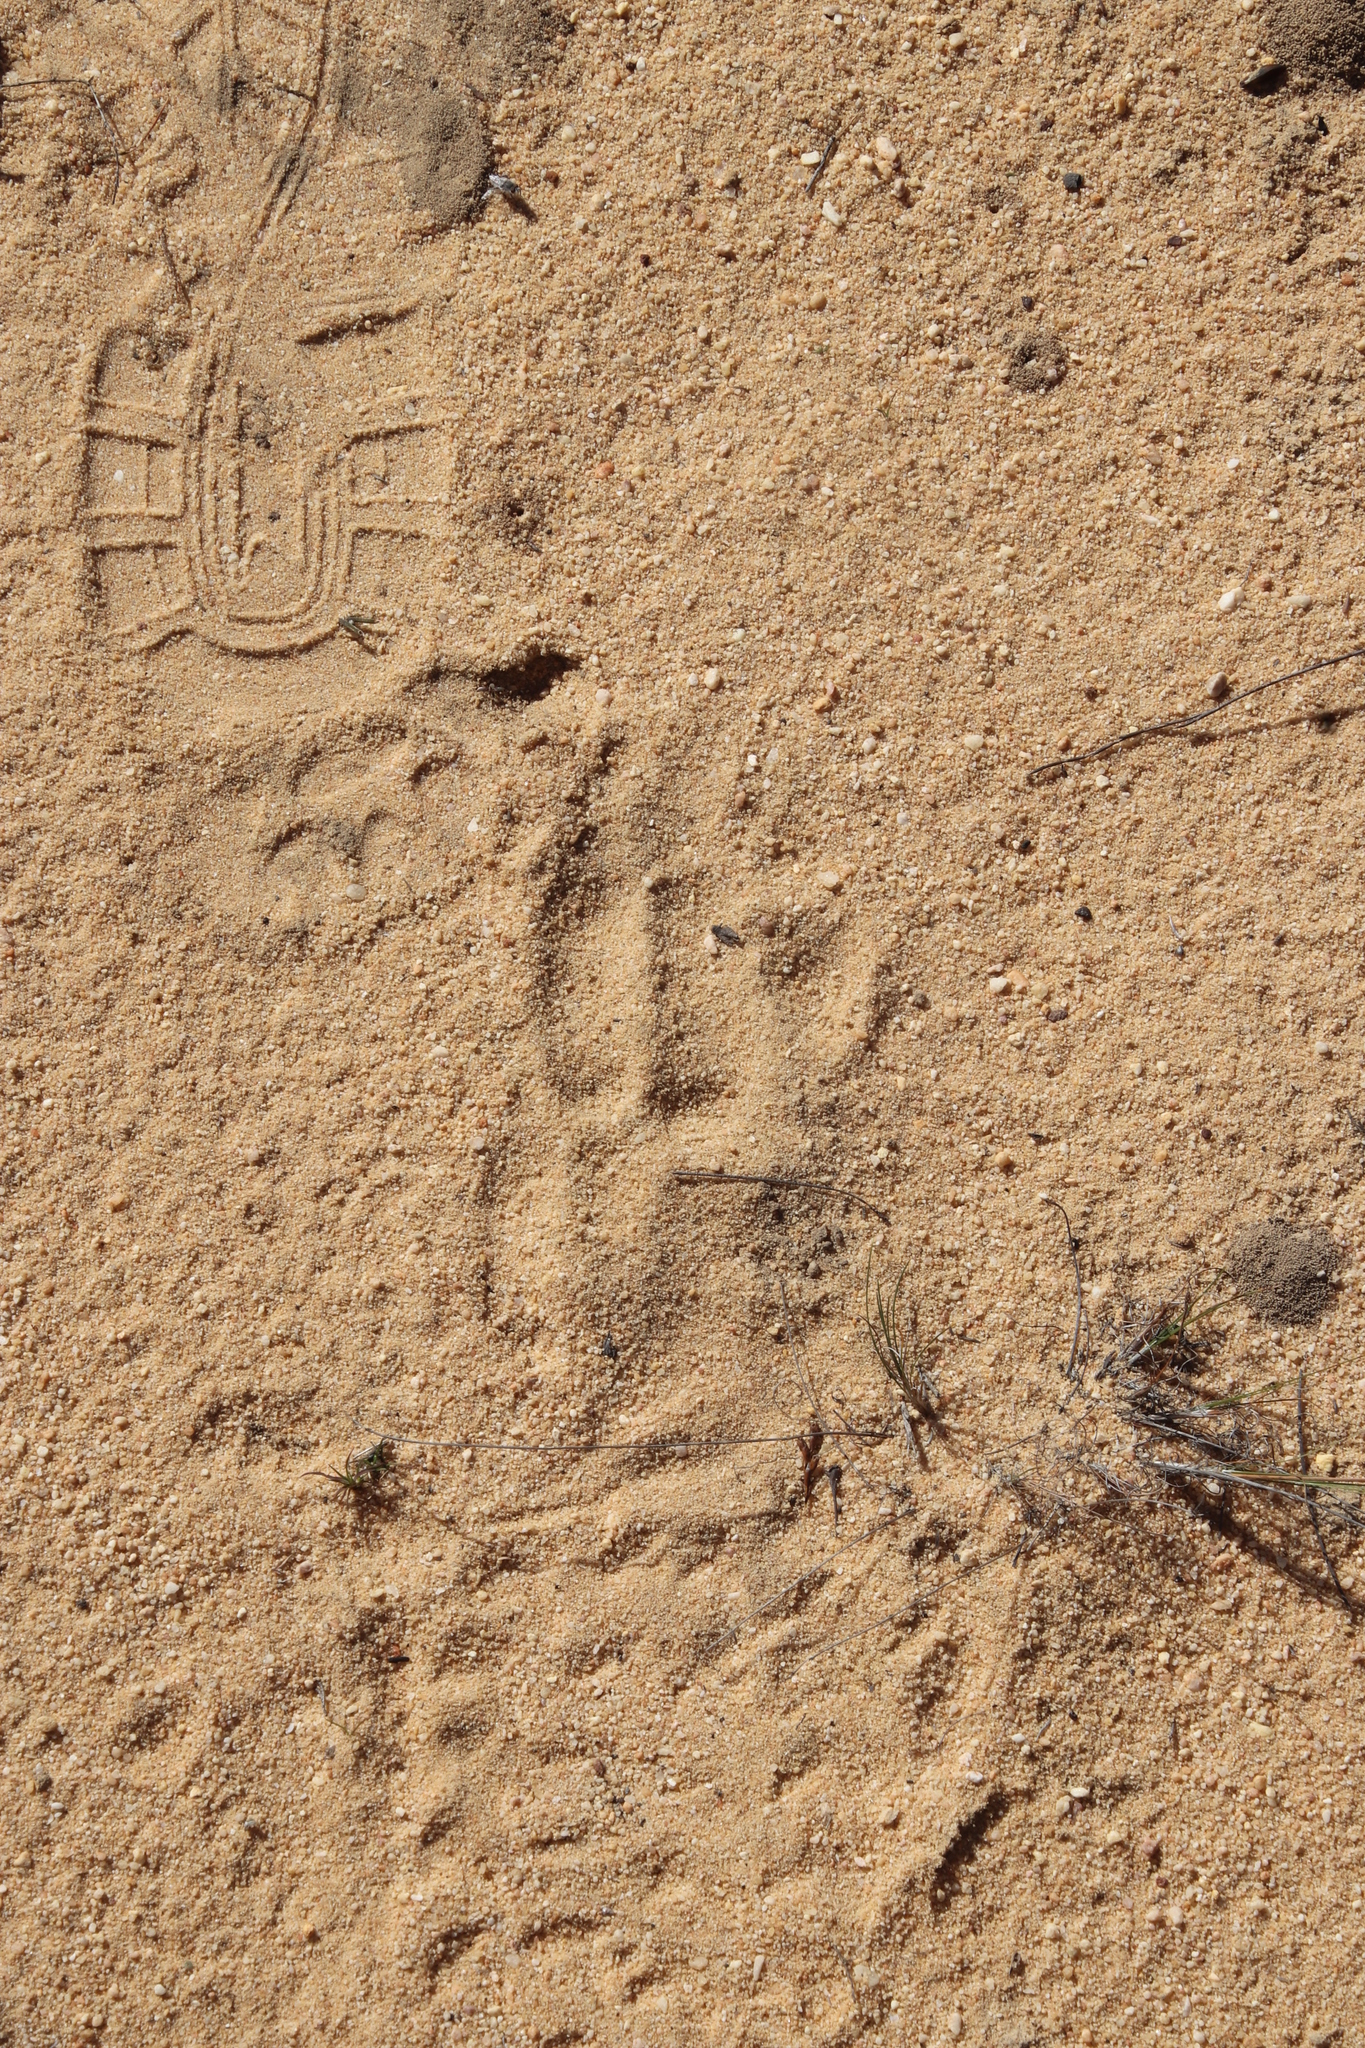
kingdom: Animalia
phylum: Chordata
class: Mammalia
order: Tubulidentata
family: Orycteropodidae
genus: Orycteropus
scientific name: Orycteropus afer
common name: Aardvark
